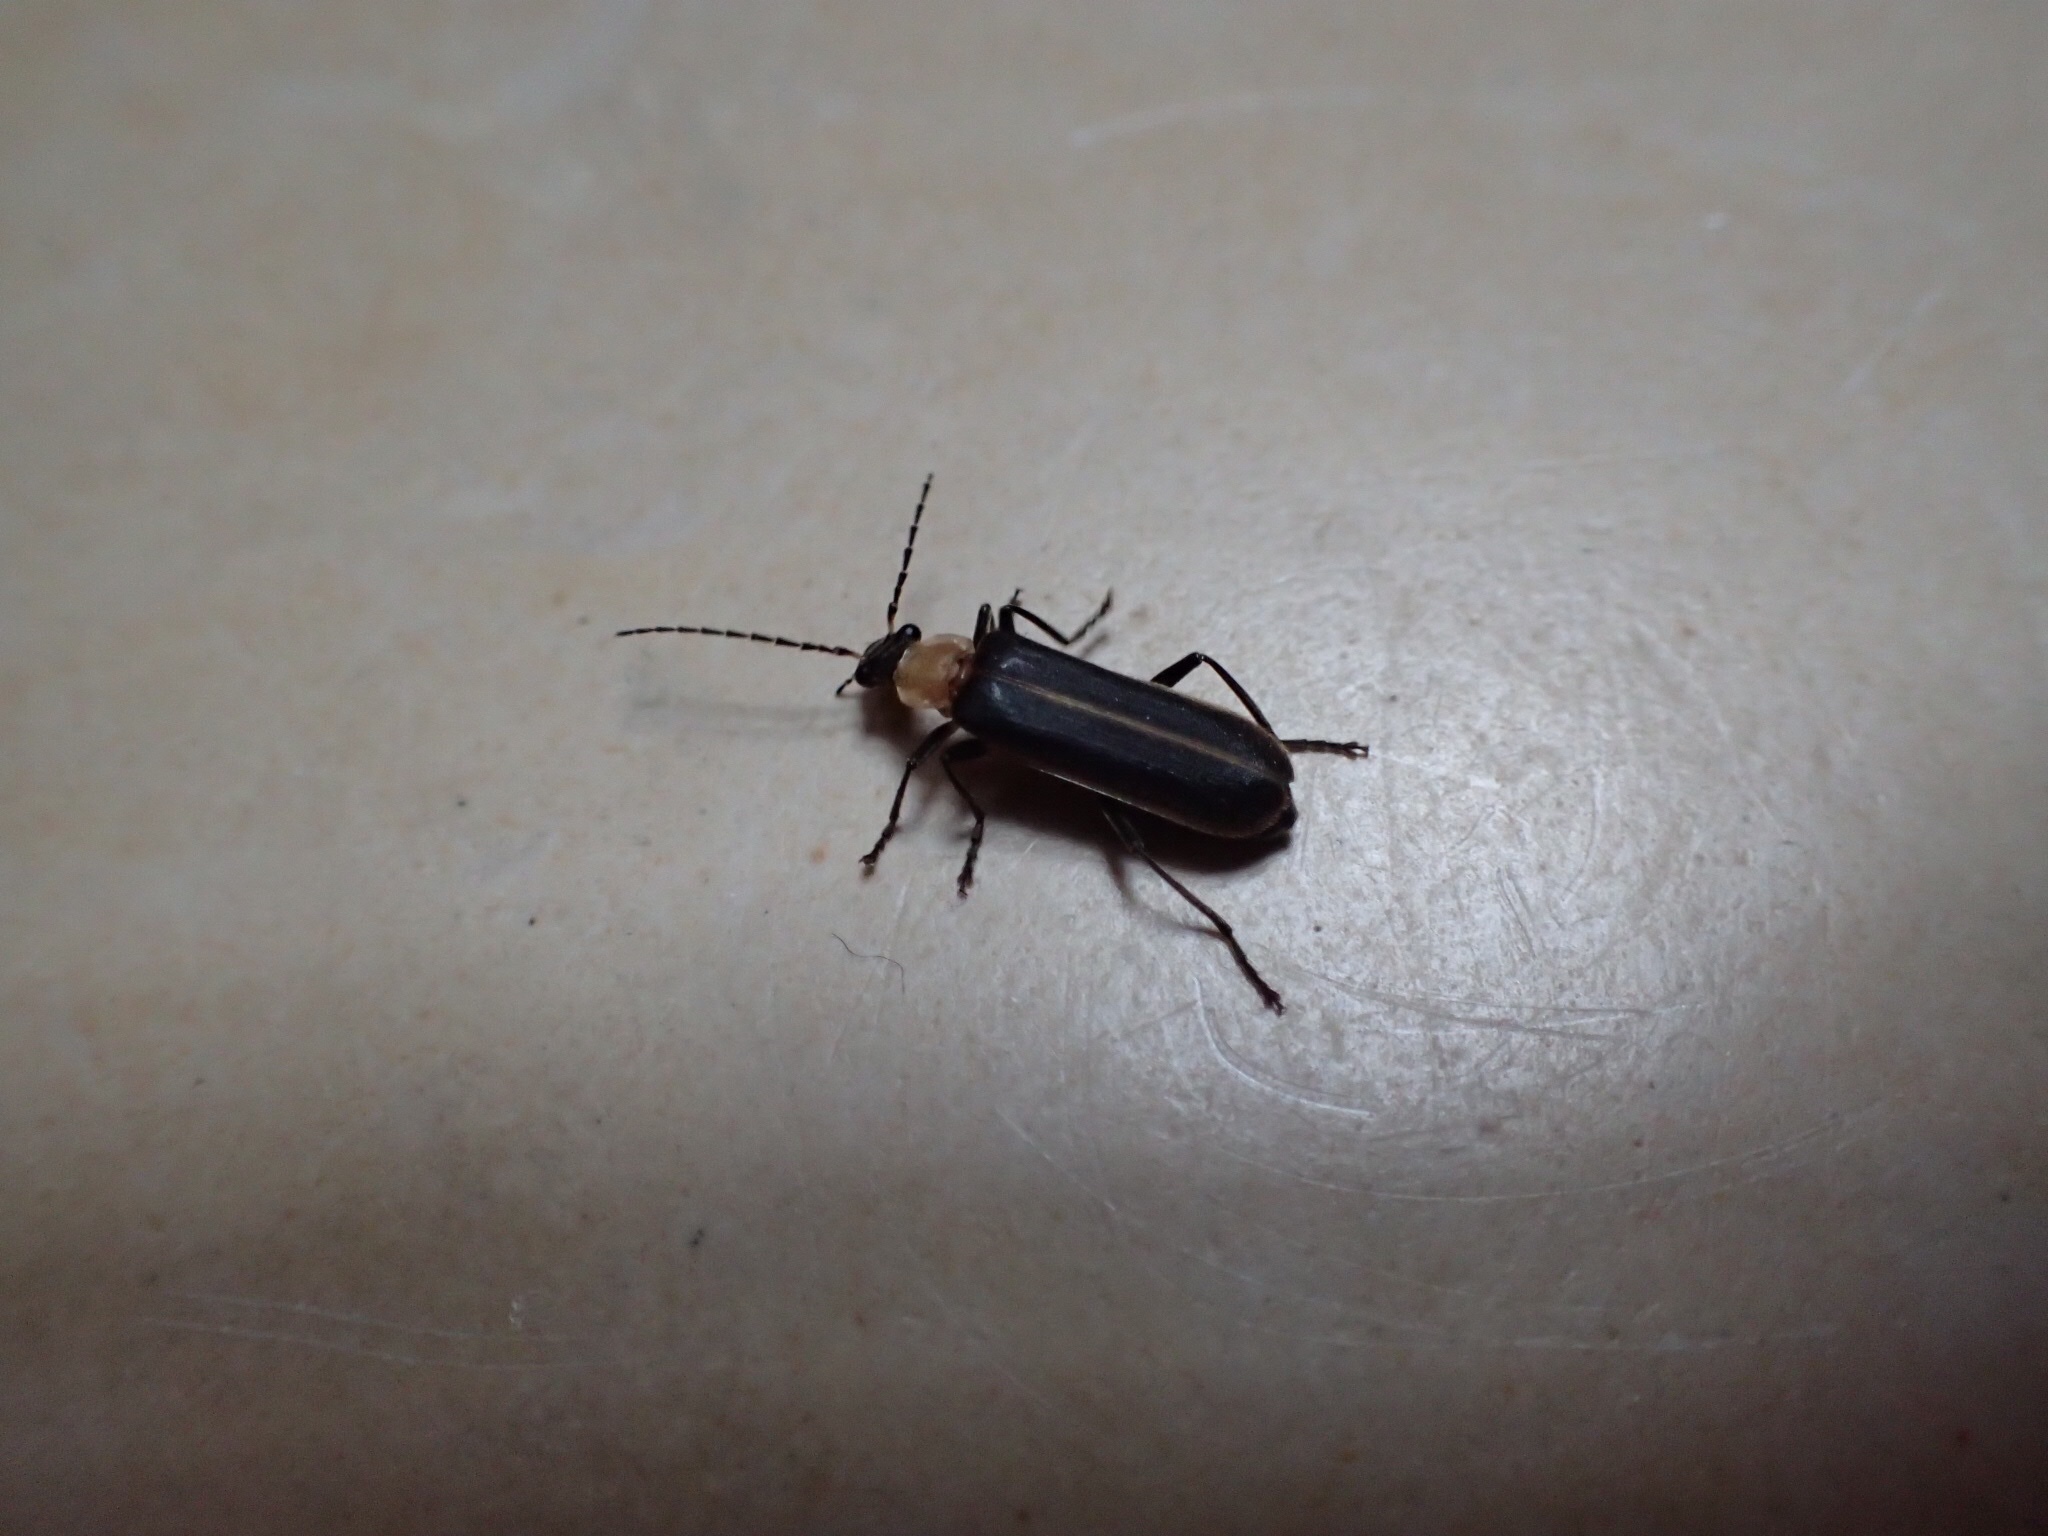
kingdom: Animalia
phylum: Arthropoda
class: Insecta
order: Coleoptera
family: Cantharidae
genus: Podabrus
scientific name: Podabrus flavicollis
